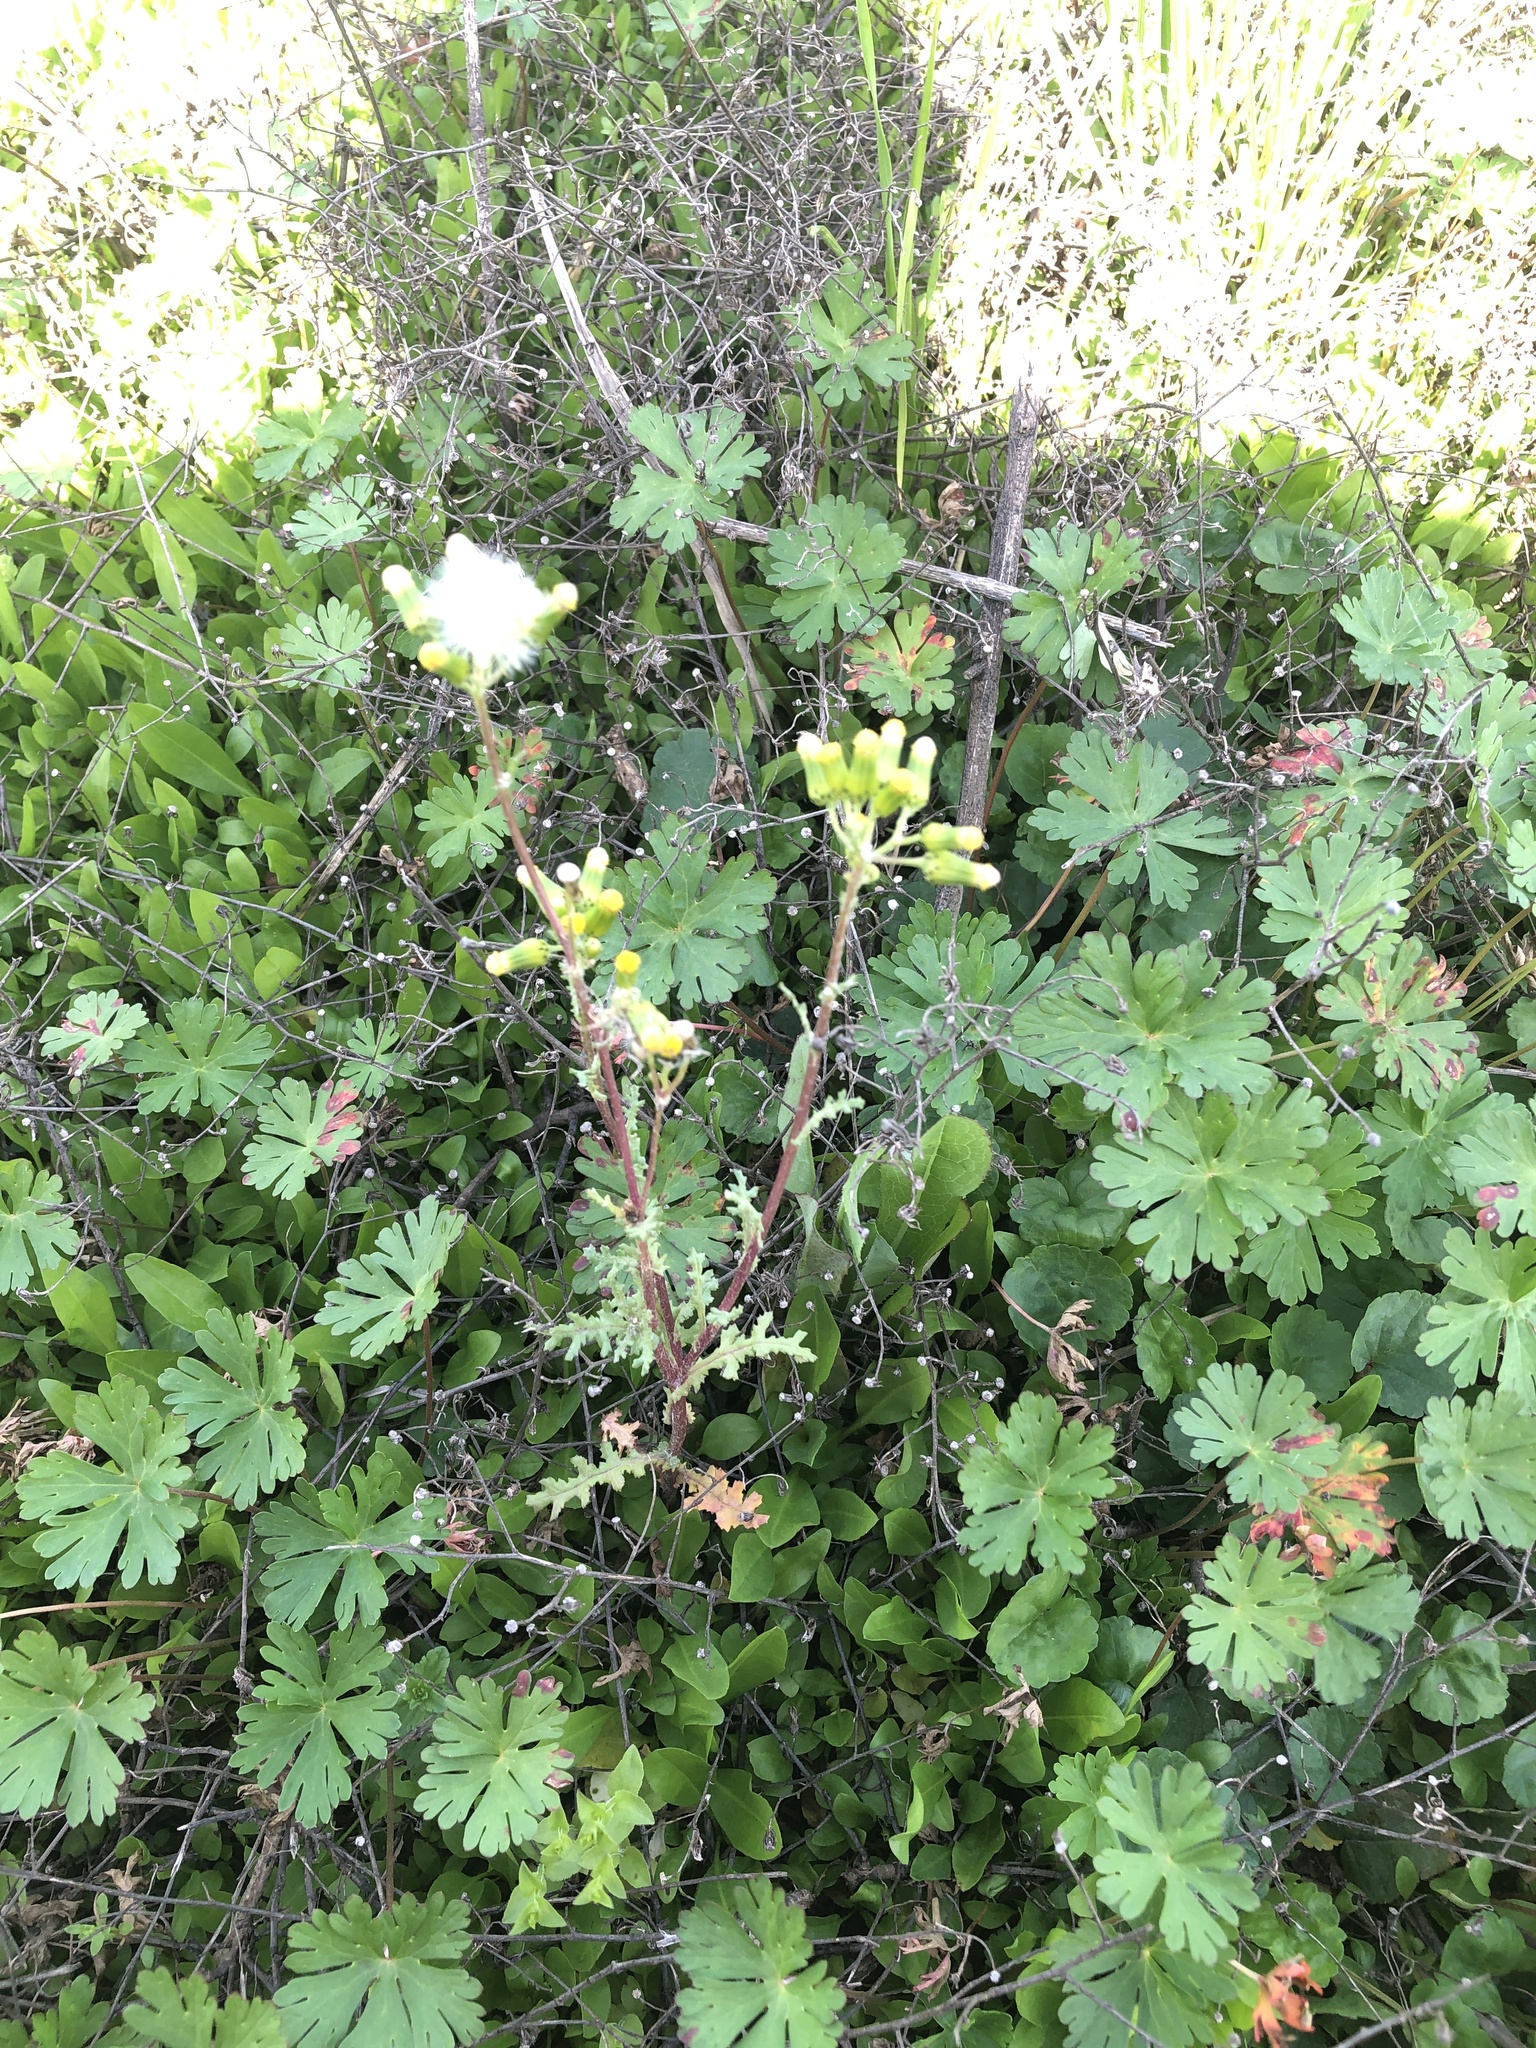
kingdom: Plantae
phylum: Tracheophyta
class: Magnoliopsida
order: Asterales
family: Asteraceae
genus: Senecio
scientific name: Senecio vulgaris
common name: Old-man-in-the-spring
